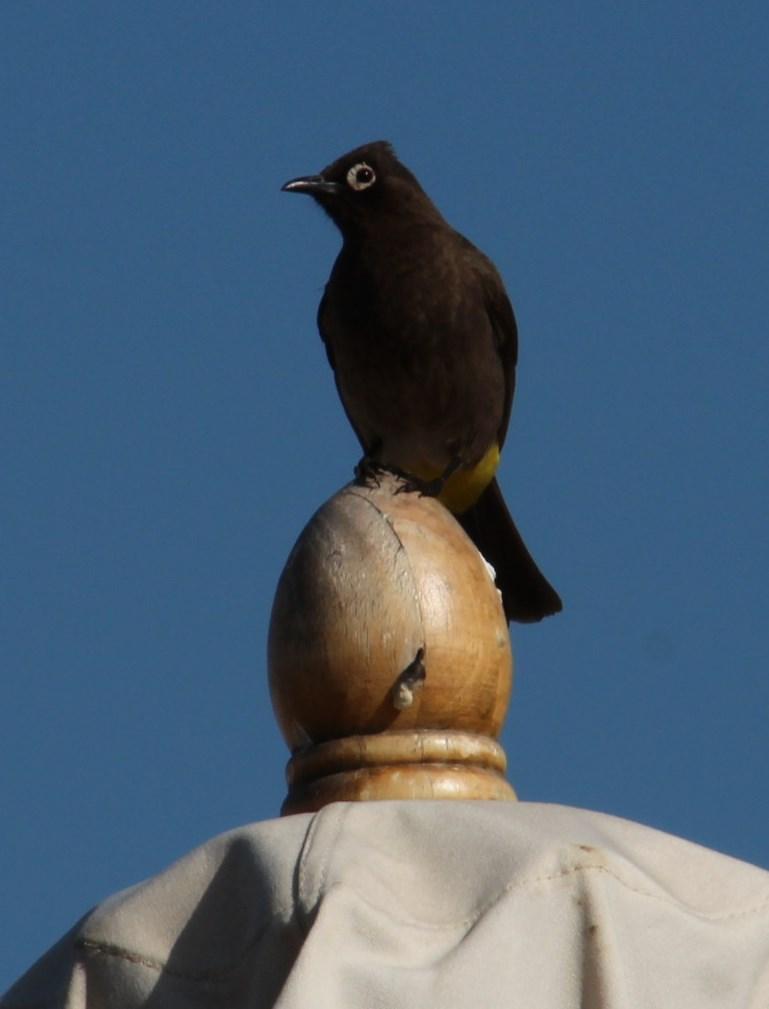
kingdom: Animalia
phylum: Chordata
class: Aves
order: Passeriformes
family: Pycnonotidae
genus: Pycnonotus
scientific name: Pycnonotus capensis
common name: Cape bulbul
